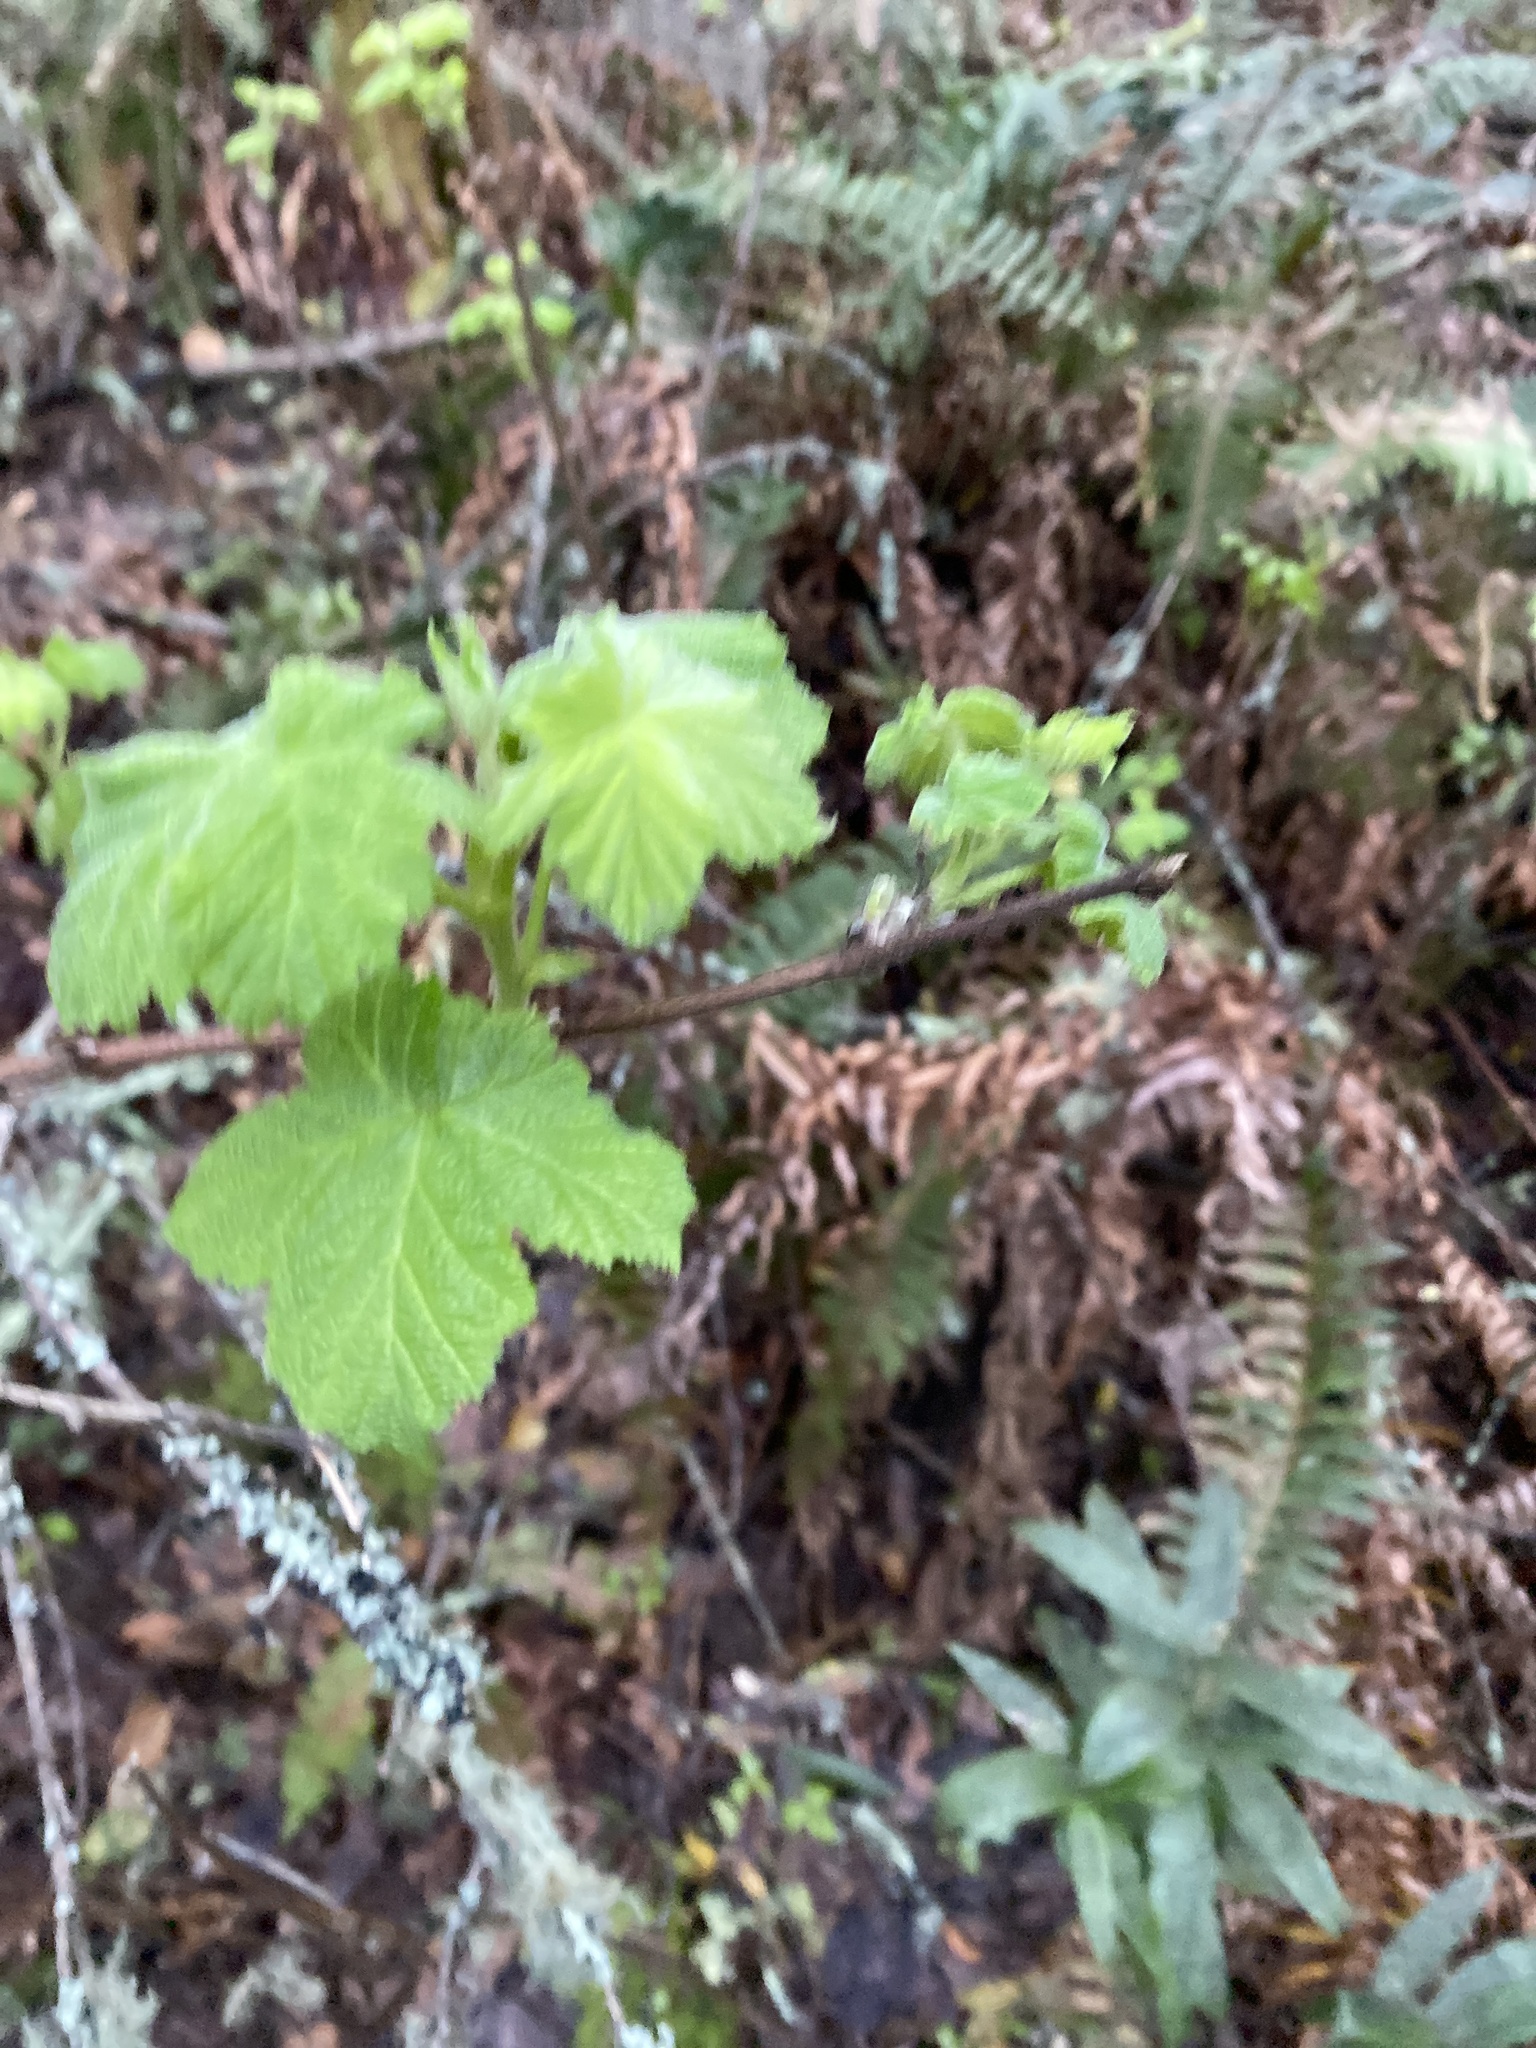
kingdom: Plantae
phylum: Tracheophyta
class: Magnoliopsida
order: Rosales
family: Rosaceae
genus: Rubus
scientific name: Rubus parviflorus
